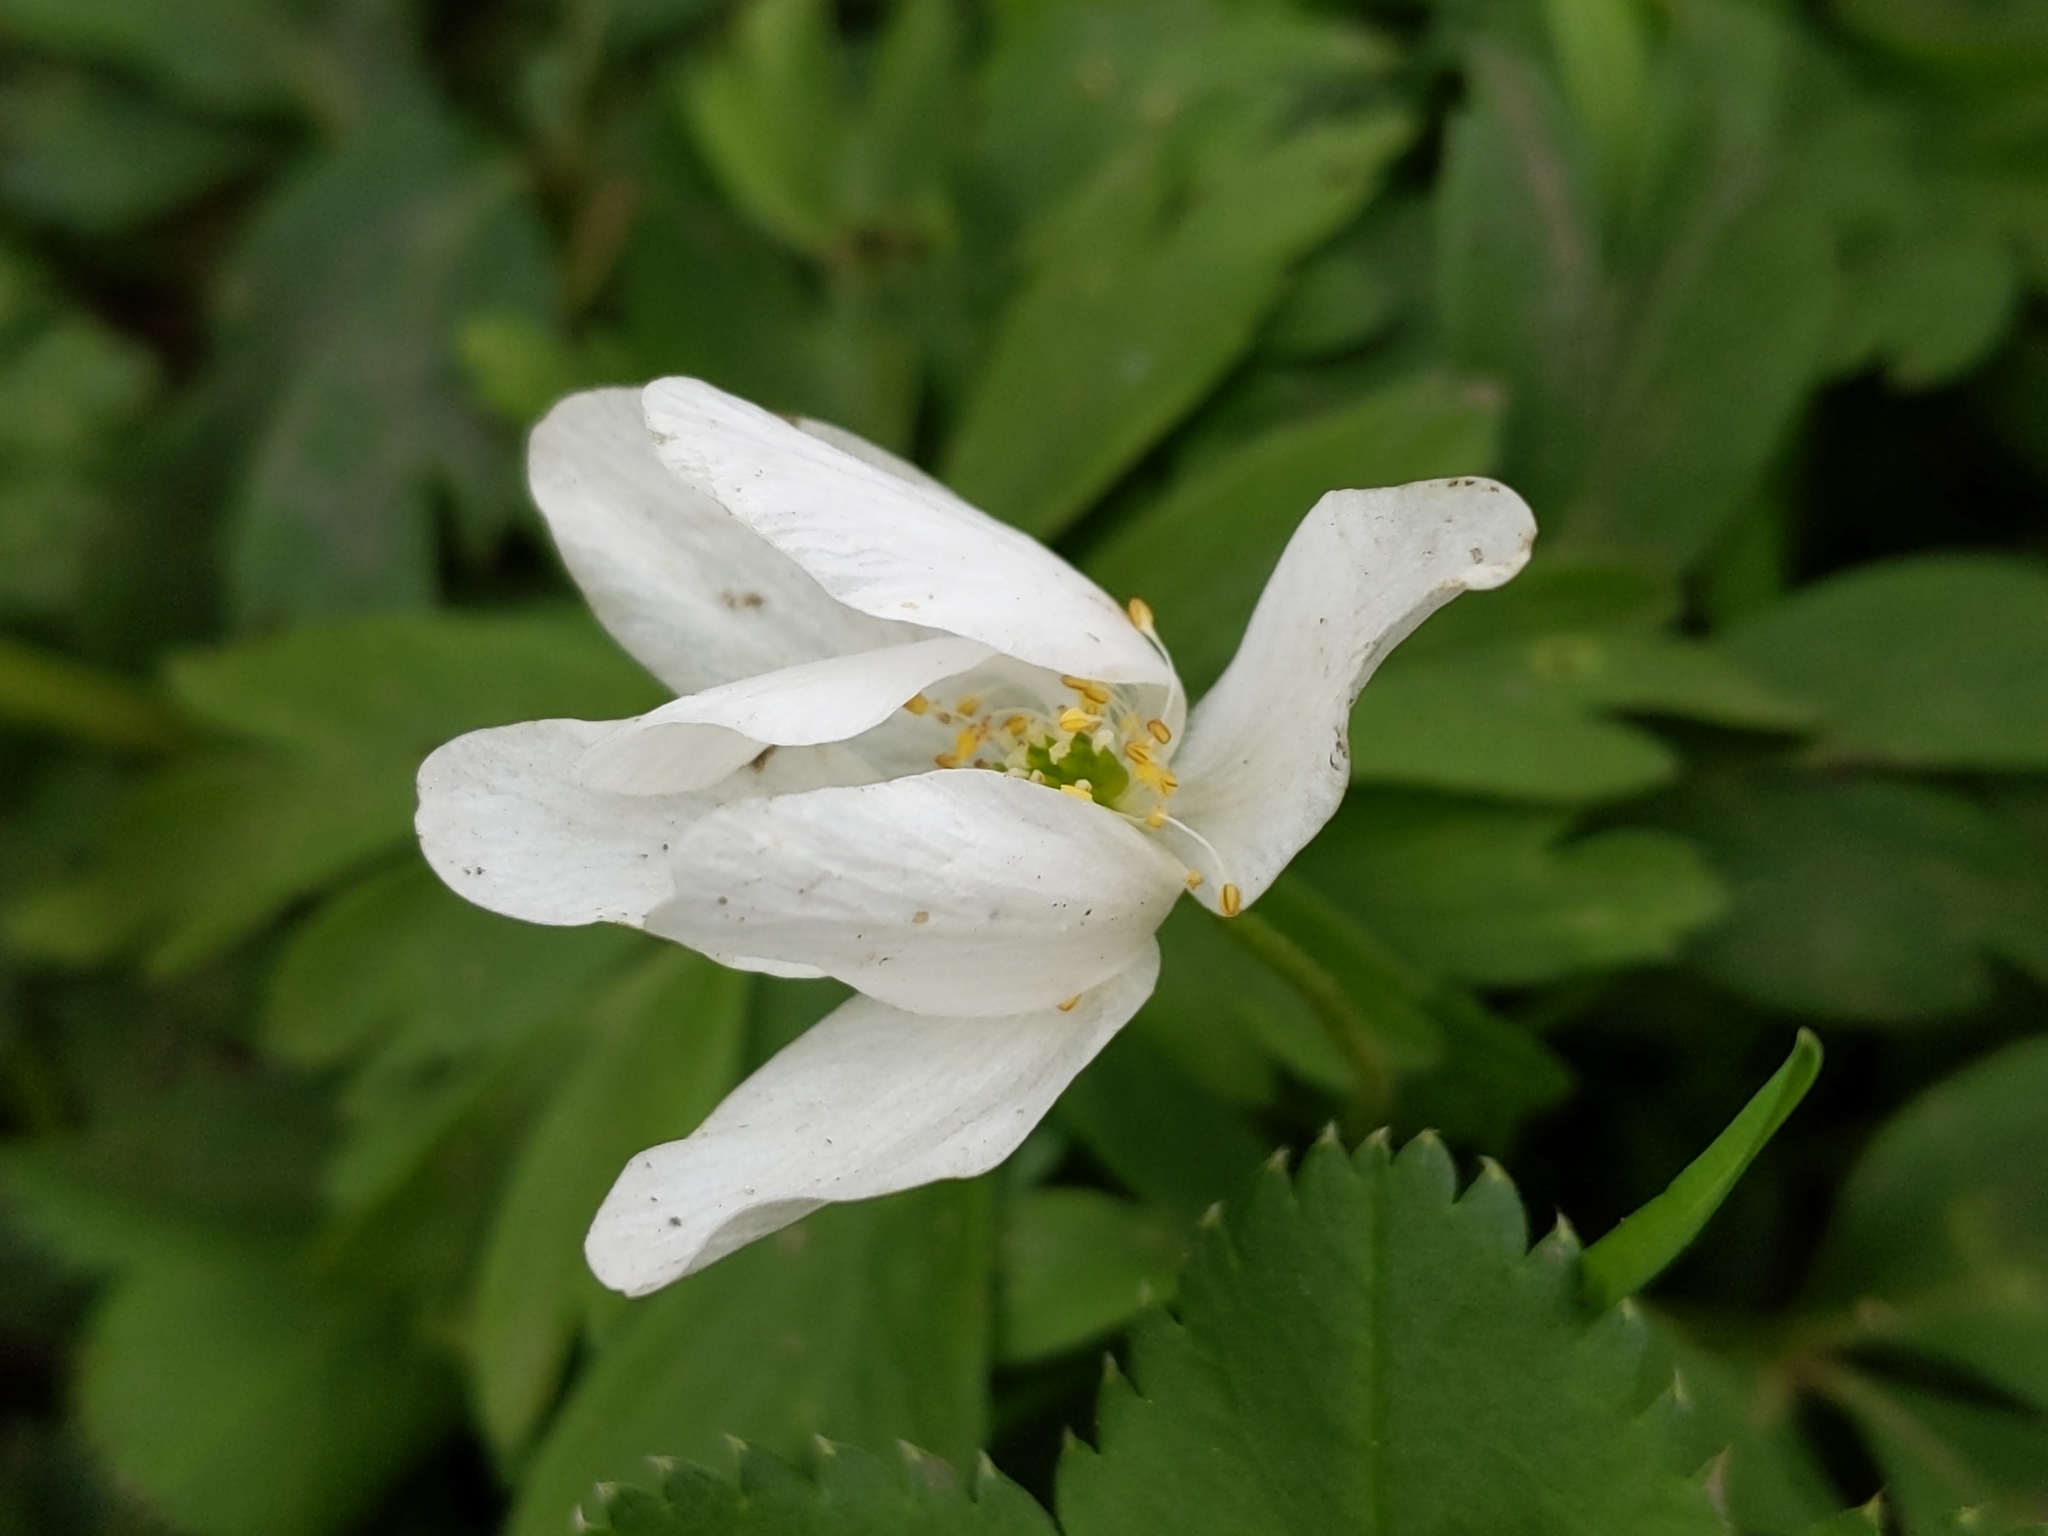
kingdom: Plantae
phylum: Tracheophyta
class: Magnoliopsida
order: Ranunculales
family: Ranunculaceae
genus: Anemone
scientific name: Anemone nemorosa
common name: Wood anemone
